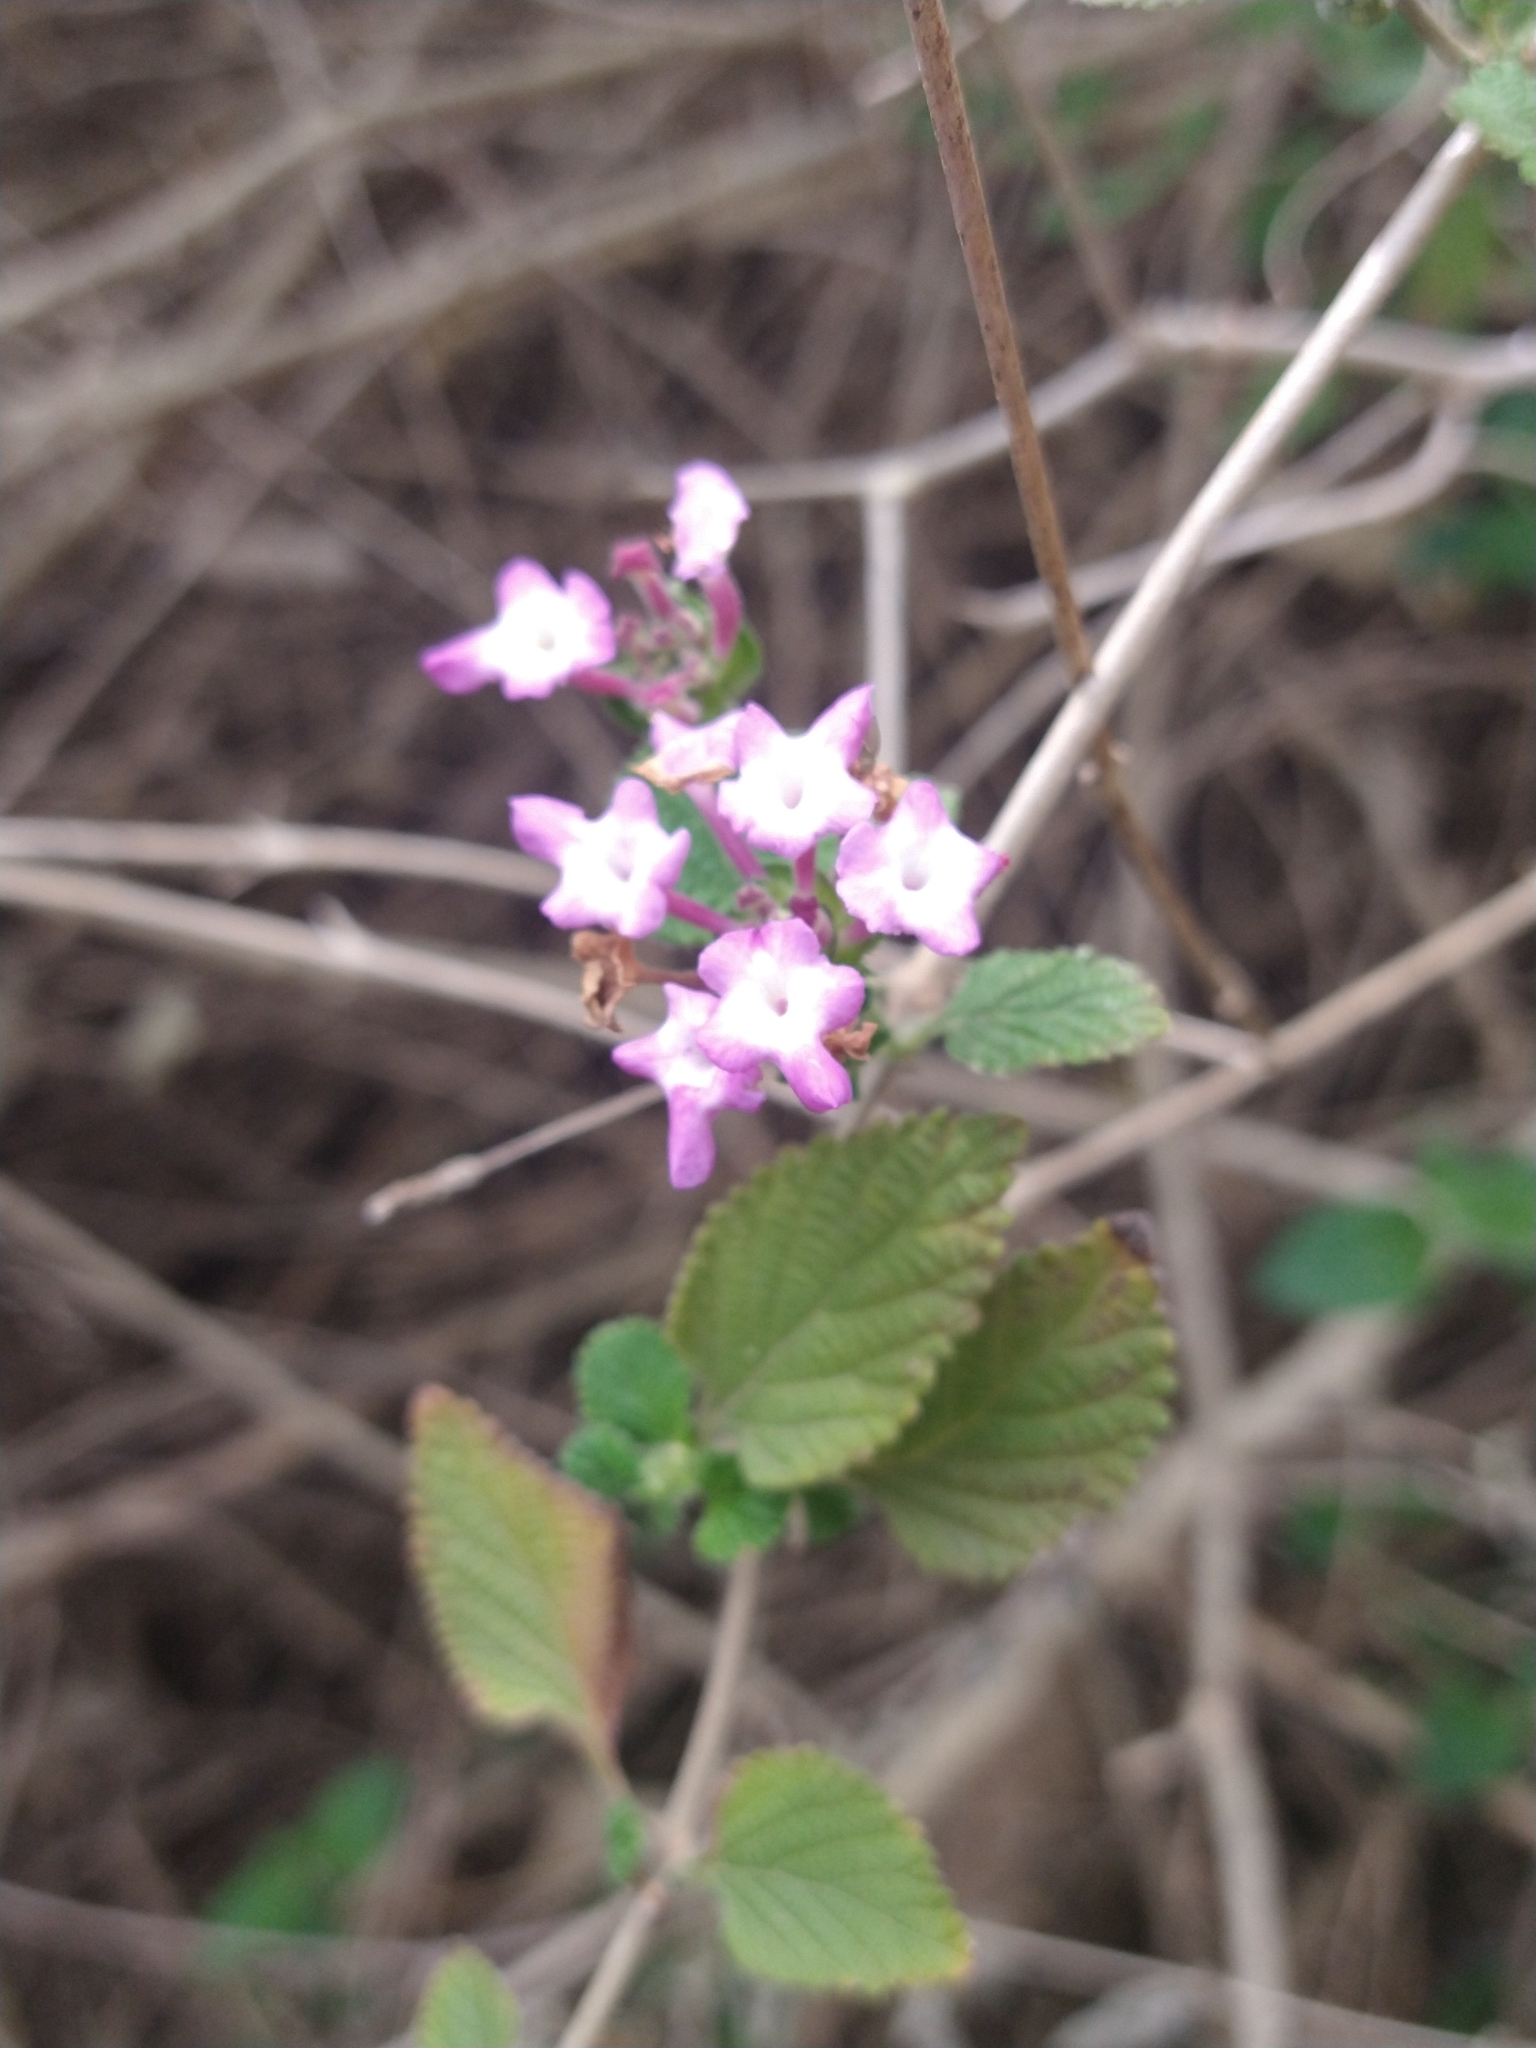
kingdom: Plantae
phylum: Tracheophyta
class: Magnoliopsida
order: Lamiales
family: Verbenaceae
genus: Lantana
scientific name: Lantana montevidensis
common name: Trailing shrubverbena
